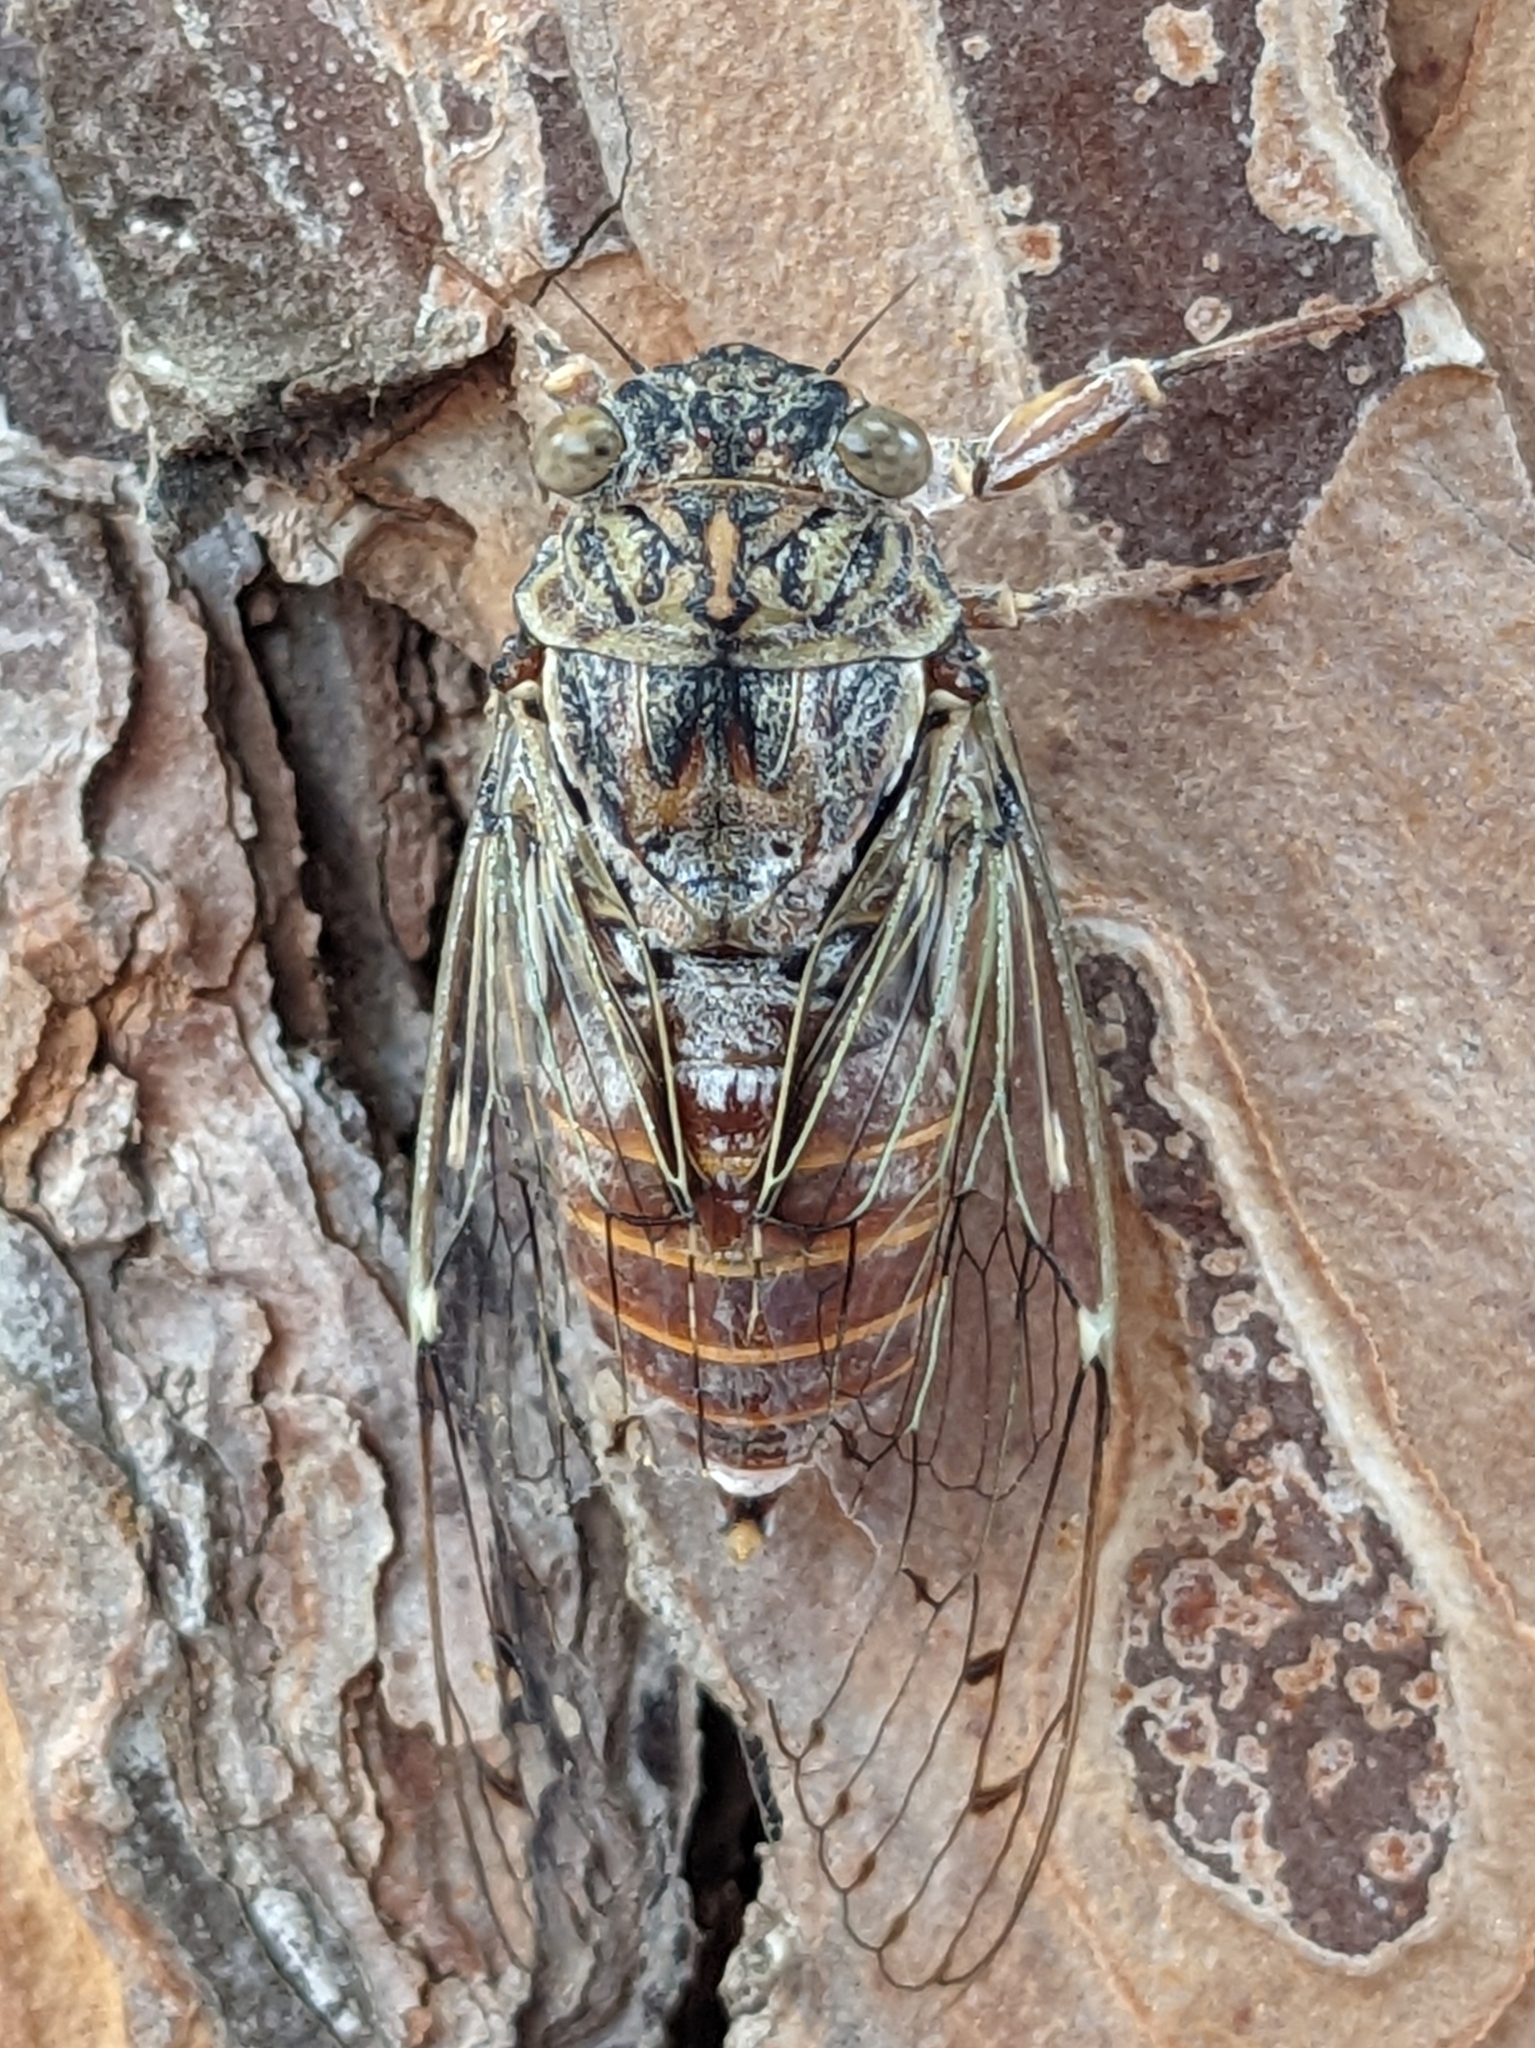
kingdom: Animalia
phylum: Arthropoda
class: Insecta
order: Hemiptera
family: Cicadidae
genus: Cicada
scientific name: Cicada orni
